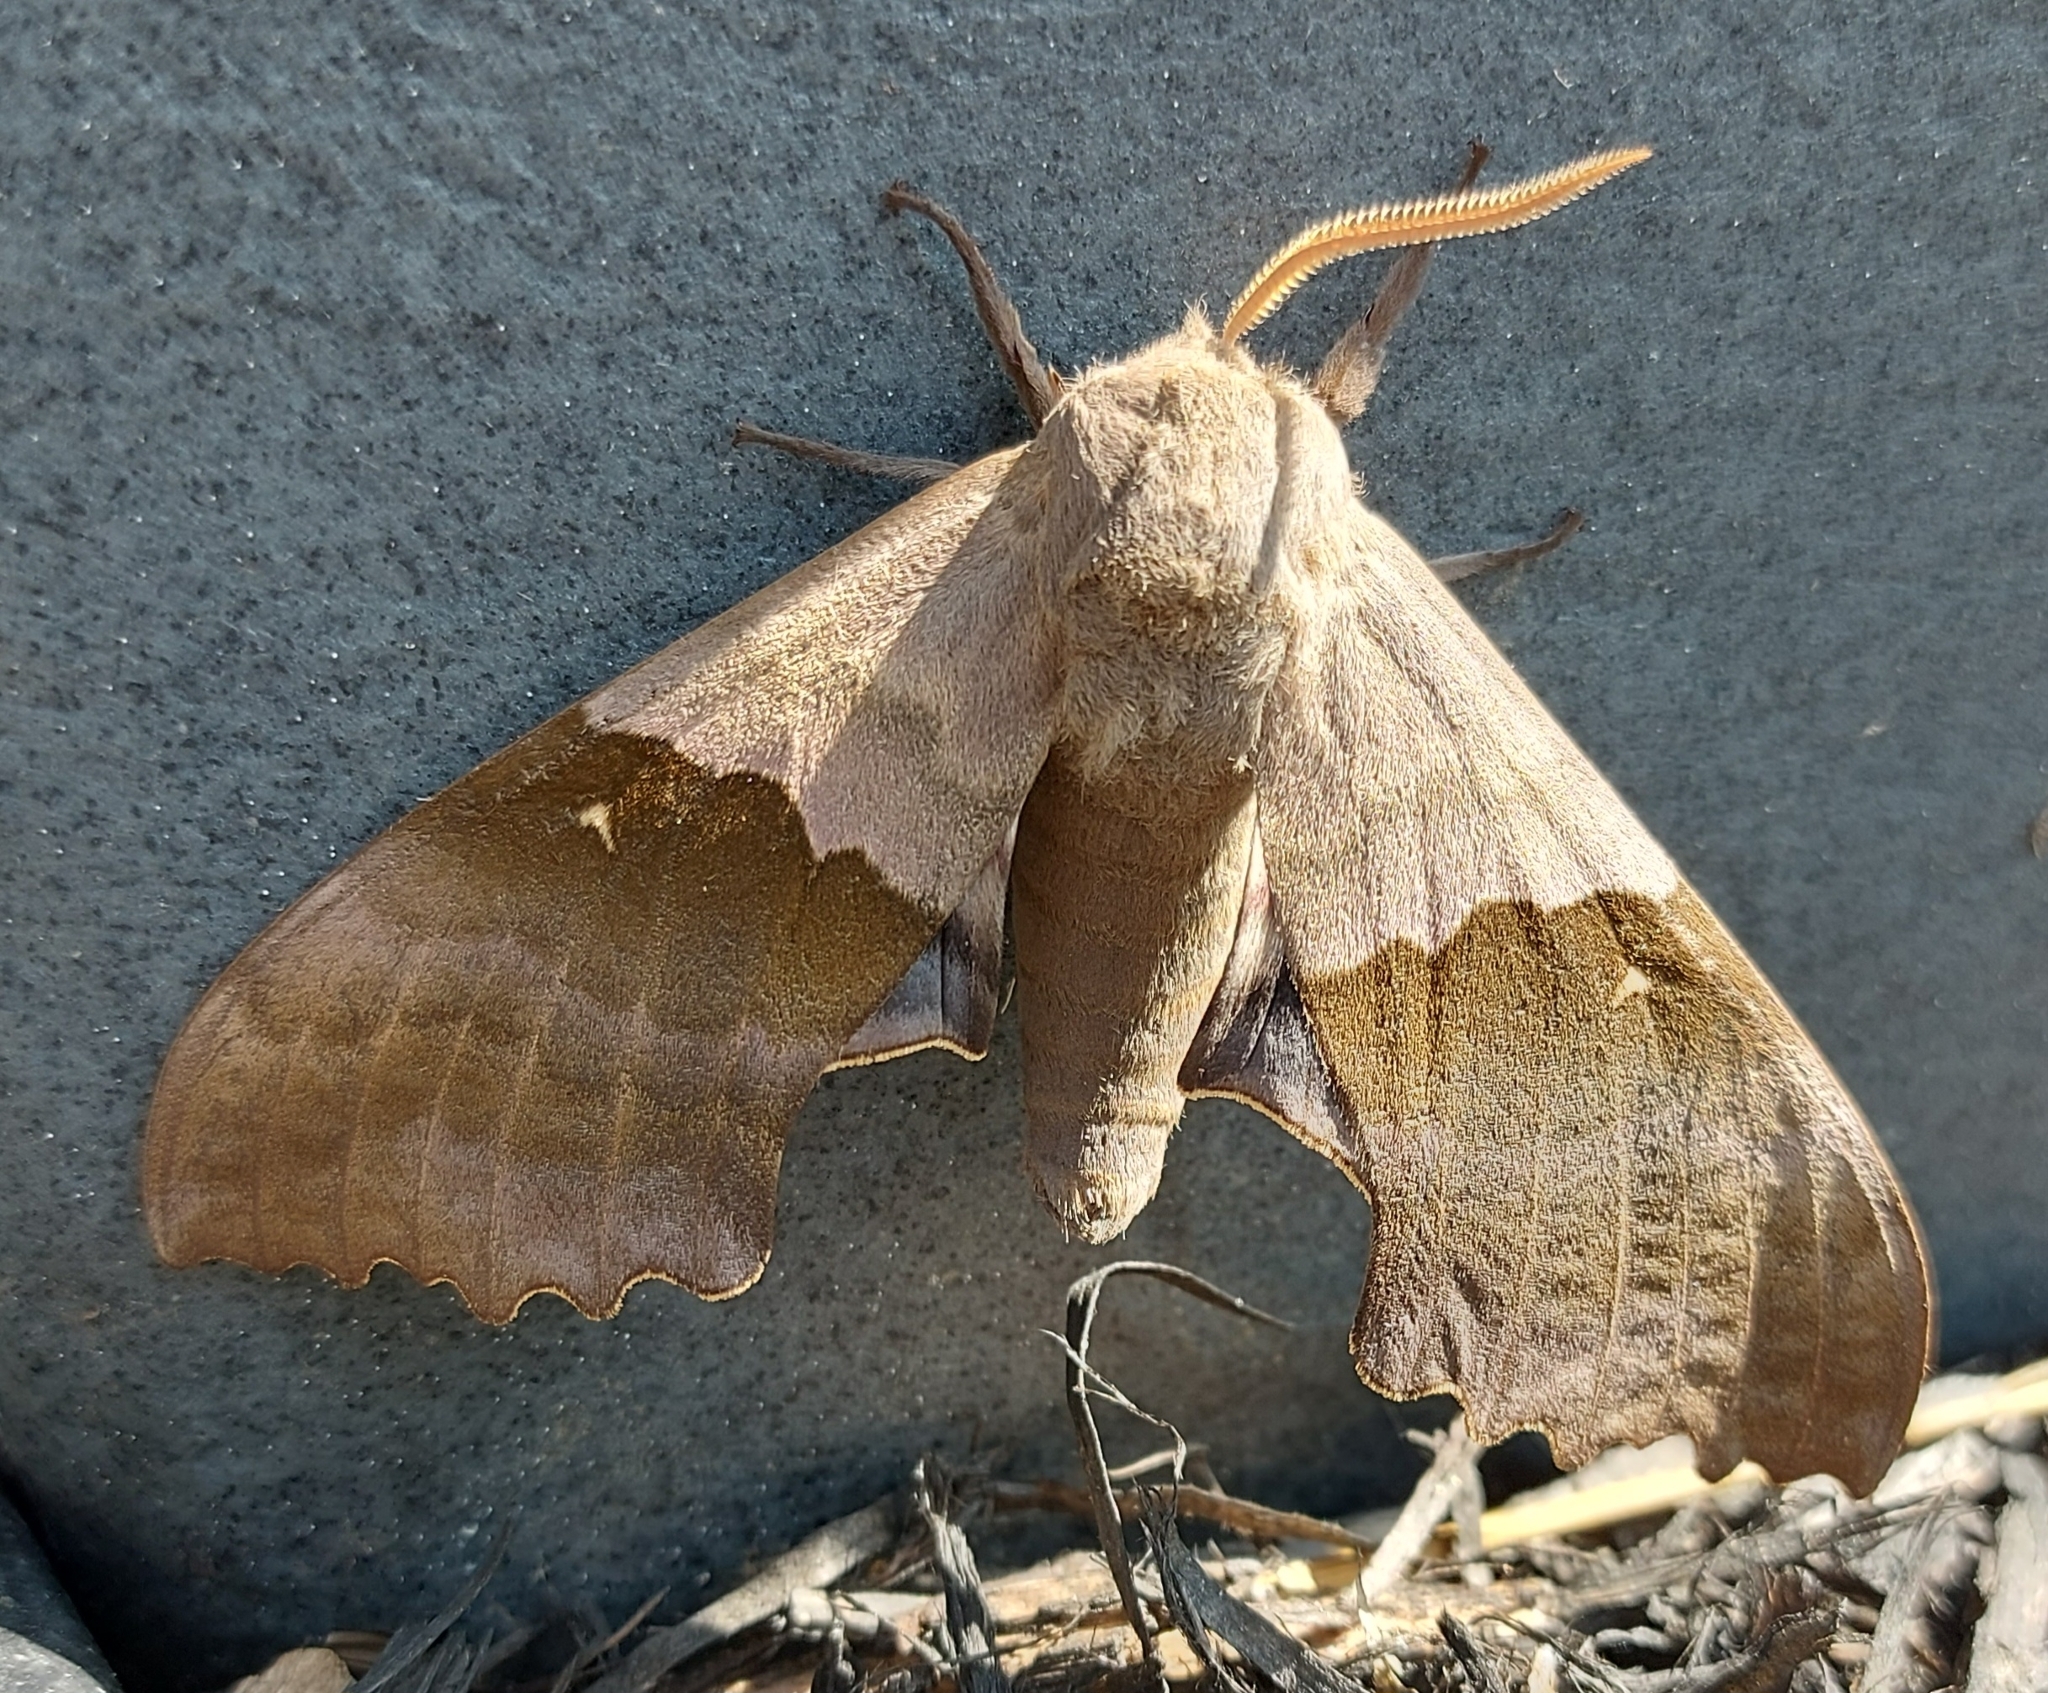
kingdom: Animalia
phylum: Arthropoda
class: Insecta
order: Lepidoptera
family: Sphingidae
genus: Pachysphinx
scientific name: Pachysphinx modesta
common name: Big poplar sphinx
